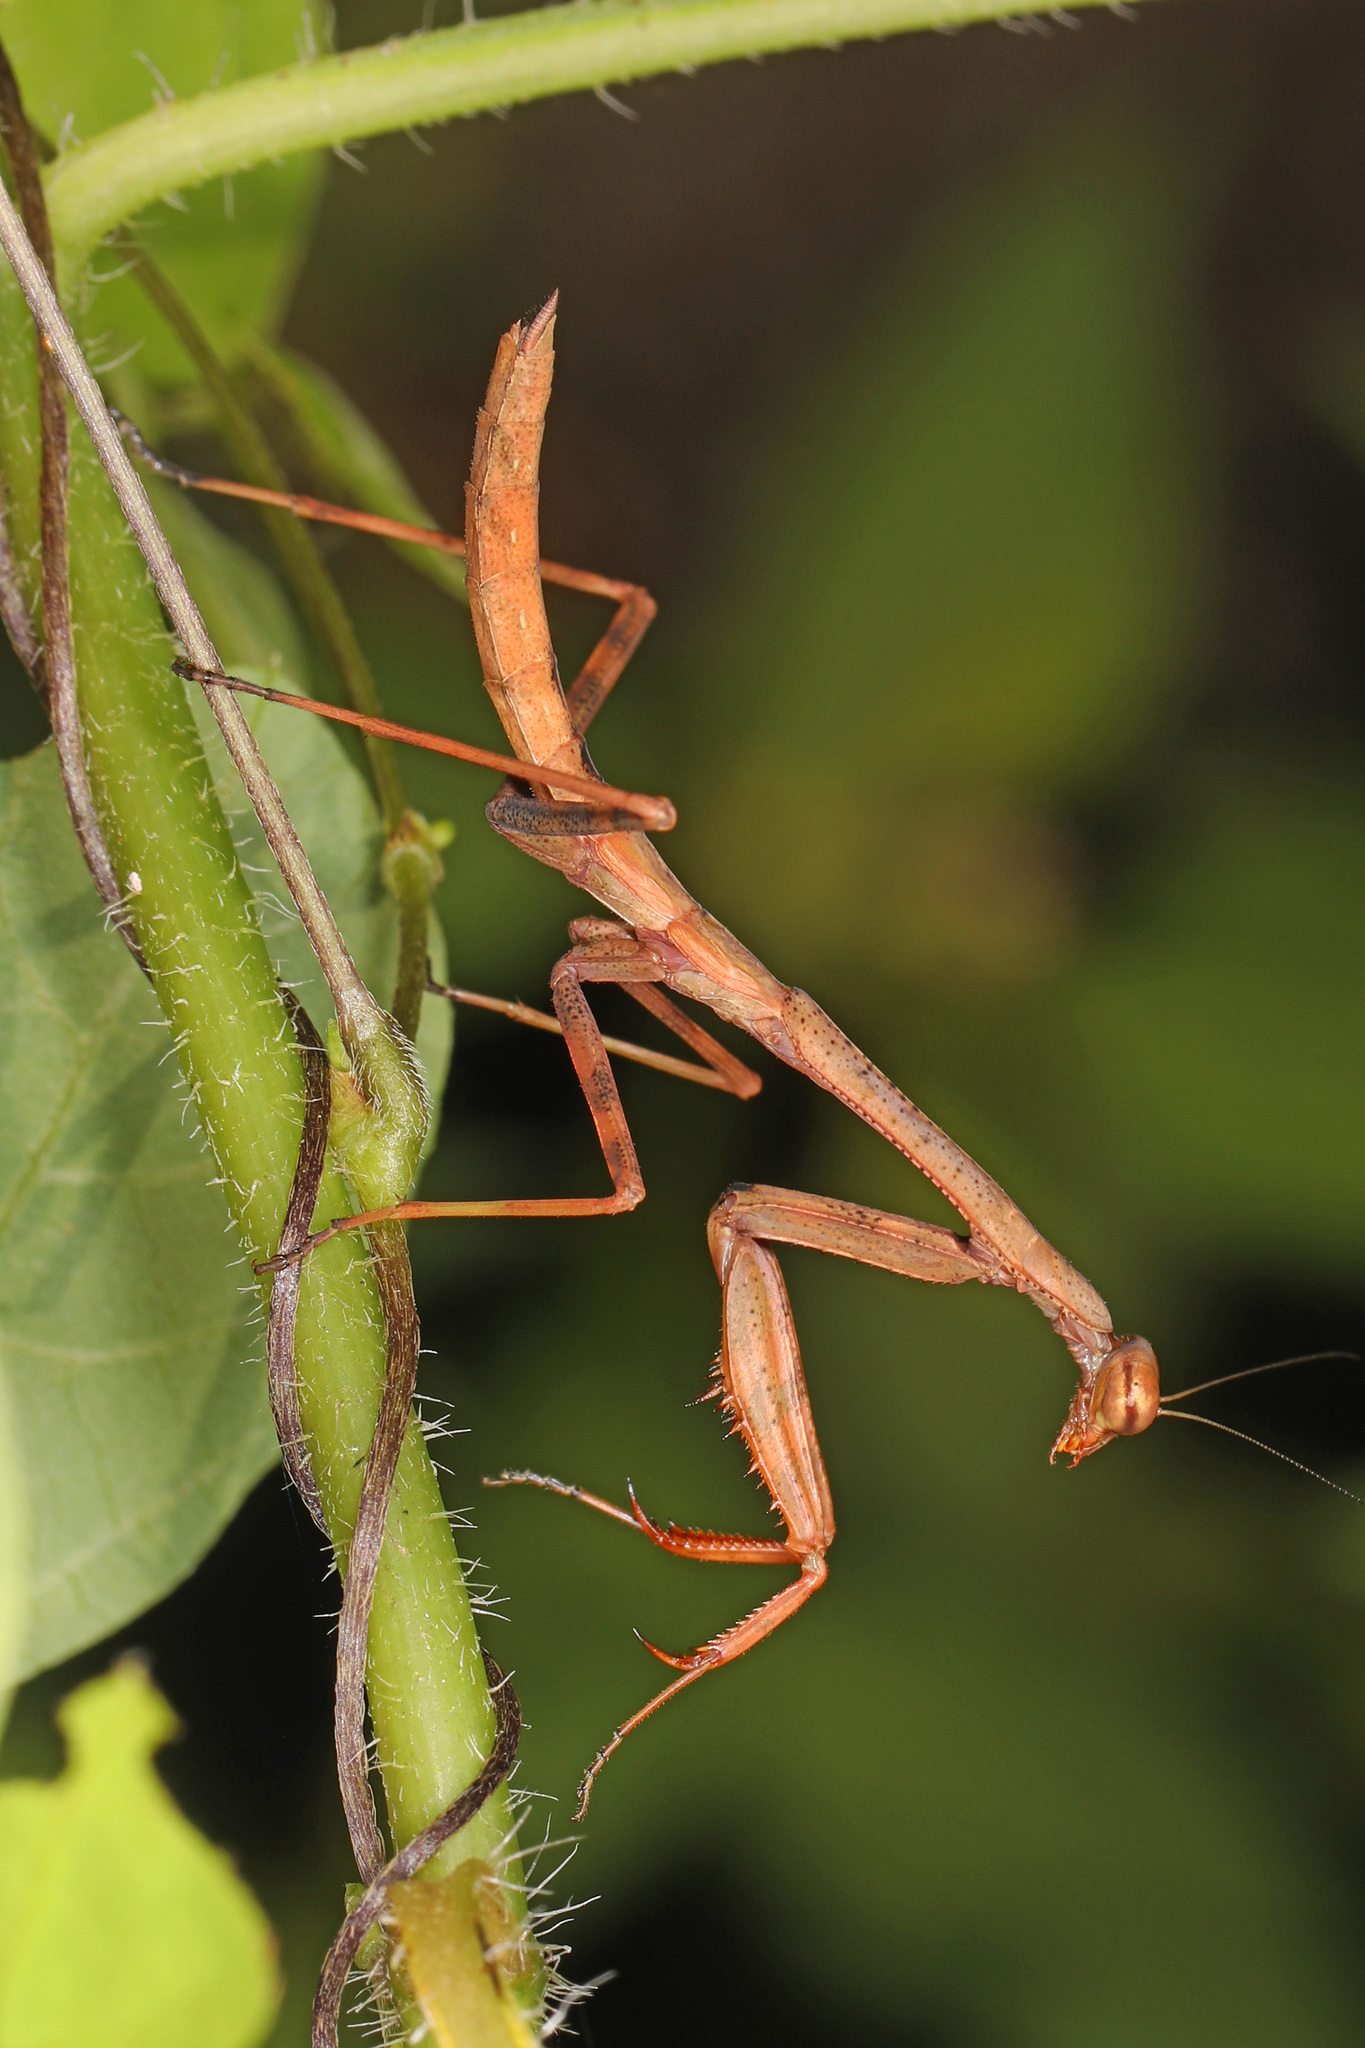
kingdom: Animalia
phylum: Arthropoda
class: Insecta
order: Mantodea
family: Mantidae
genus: Stagmomantis
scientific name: Stagmomantis carolina
